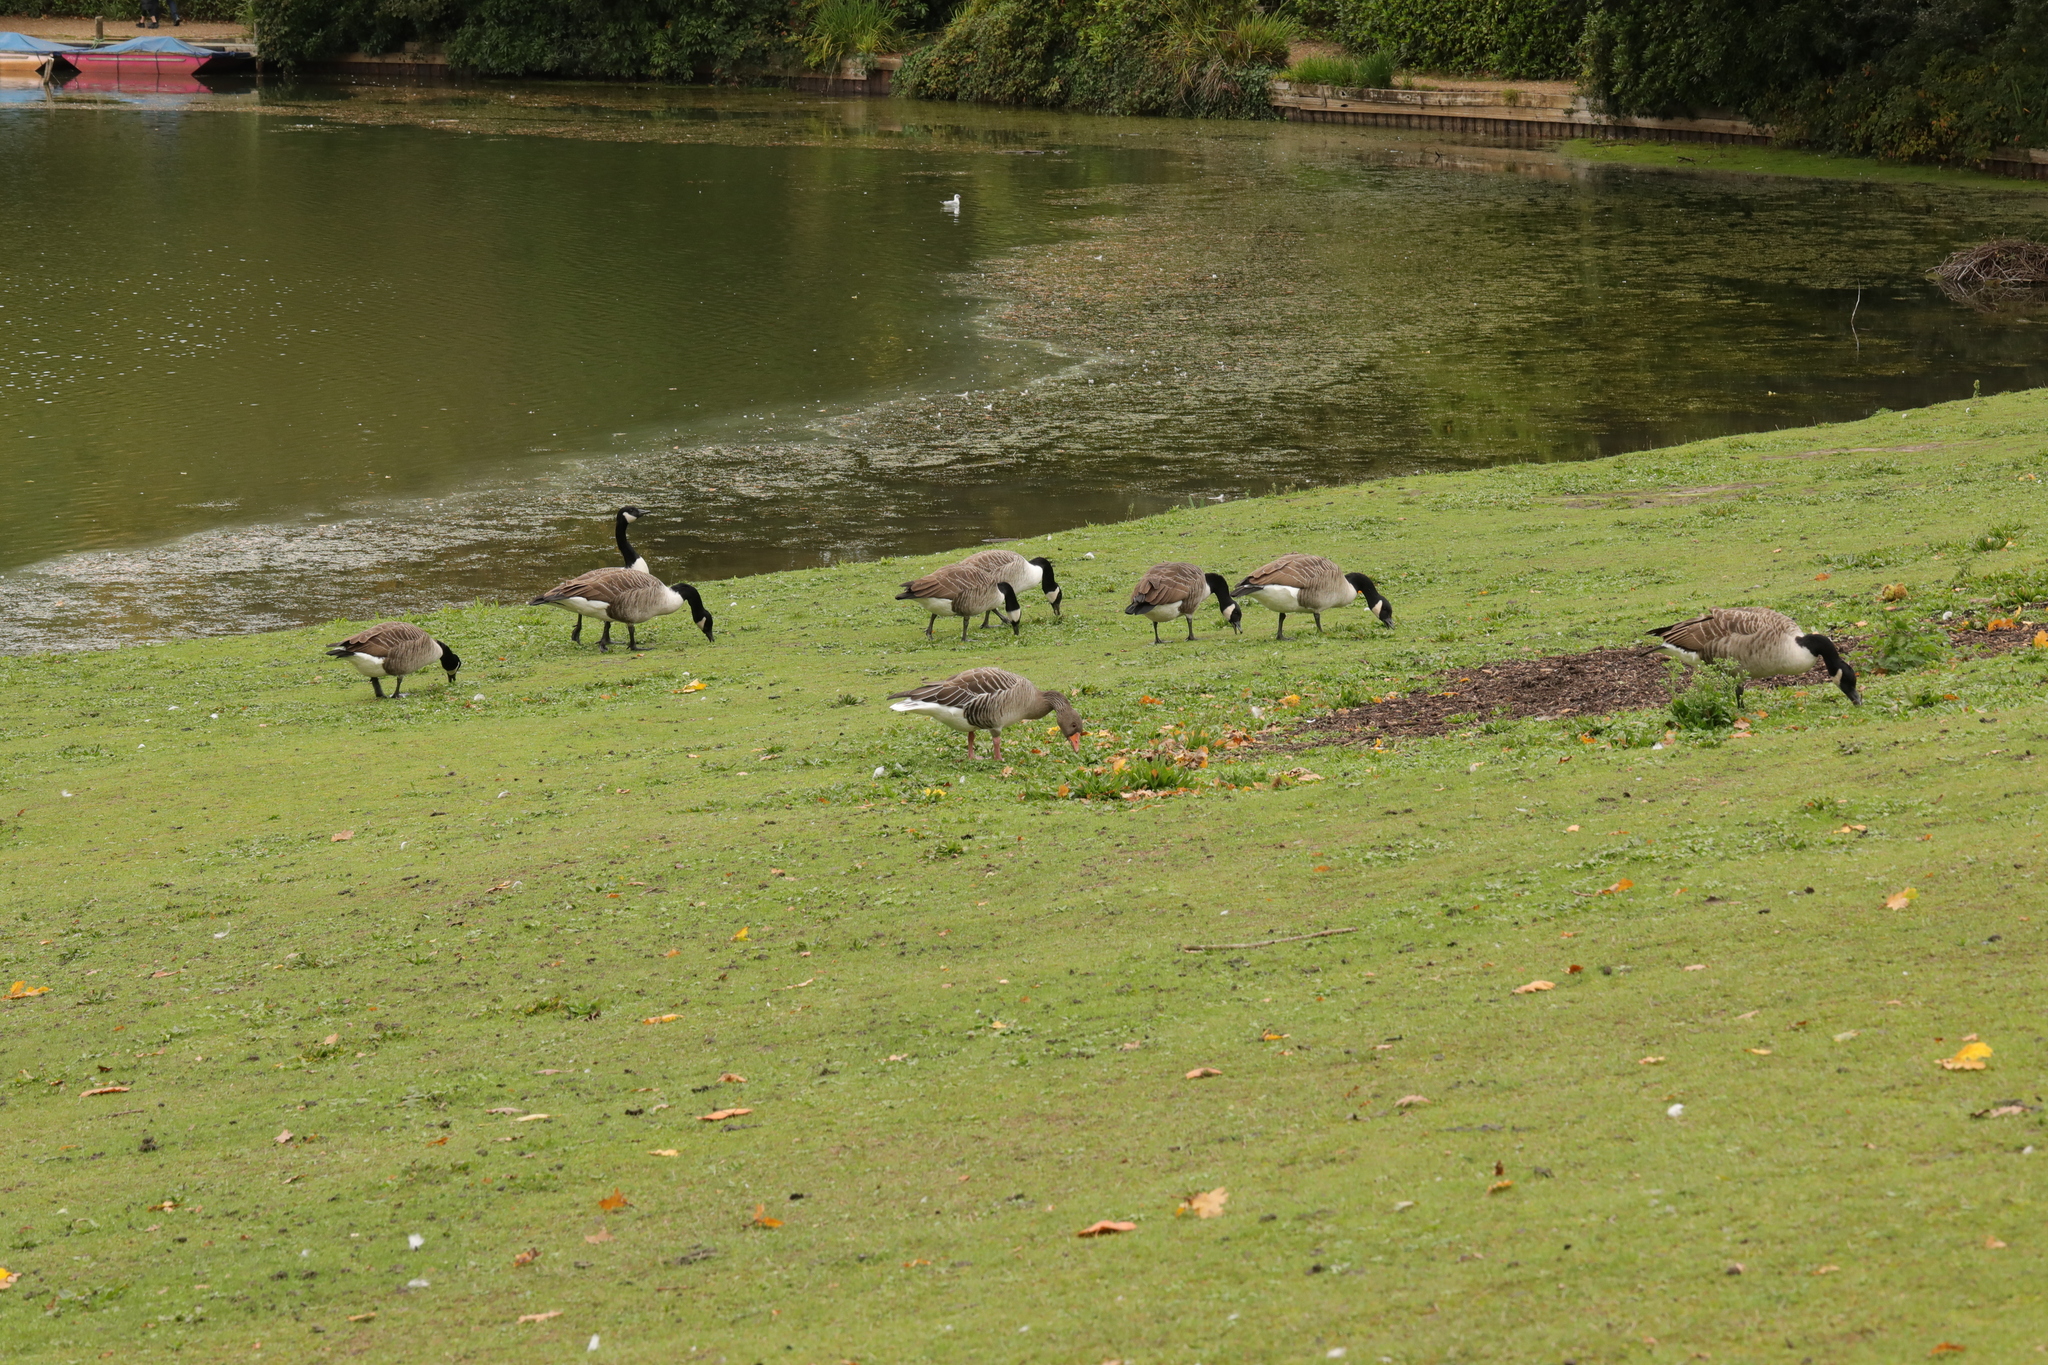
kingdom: Animalia
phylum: Chordata
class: Aves
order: Anseriformes
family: Anatidae
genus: Branta
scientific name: Branta canadensis
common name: Canada goose
